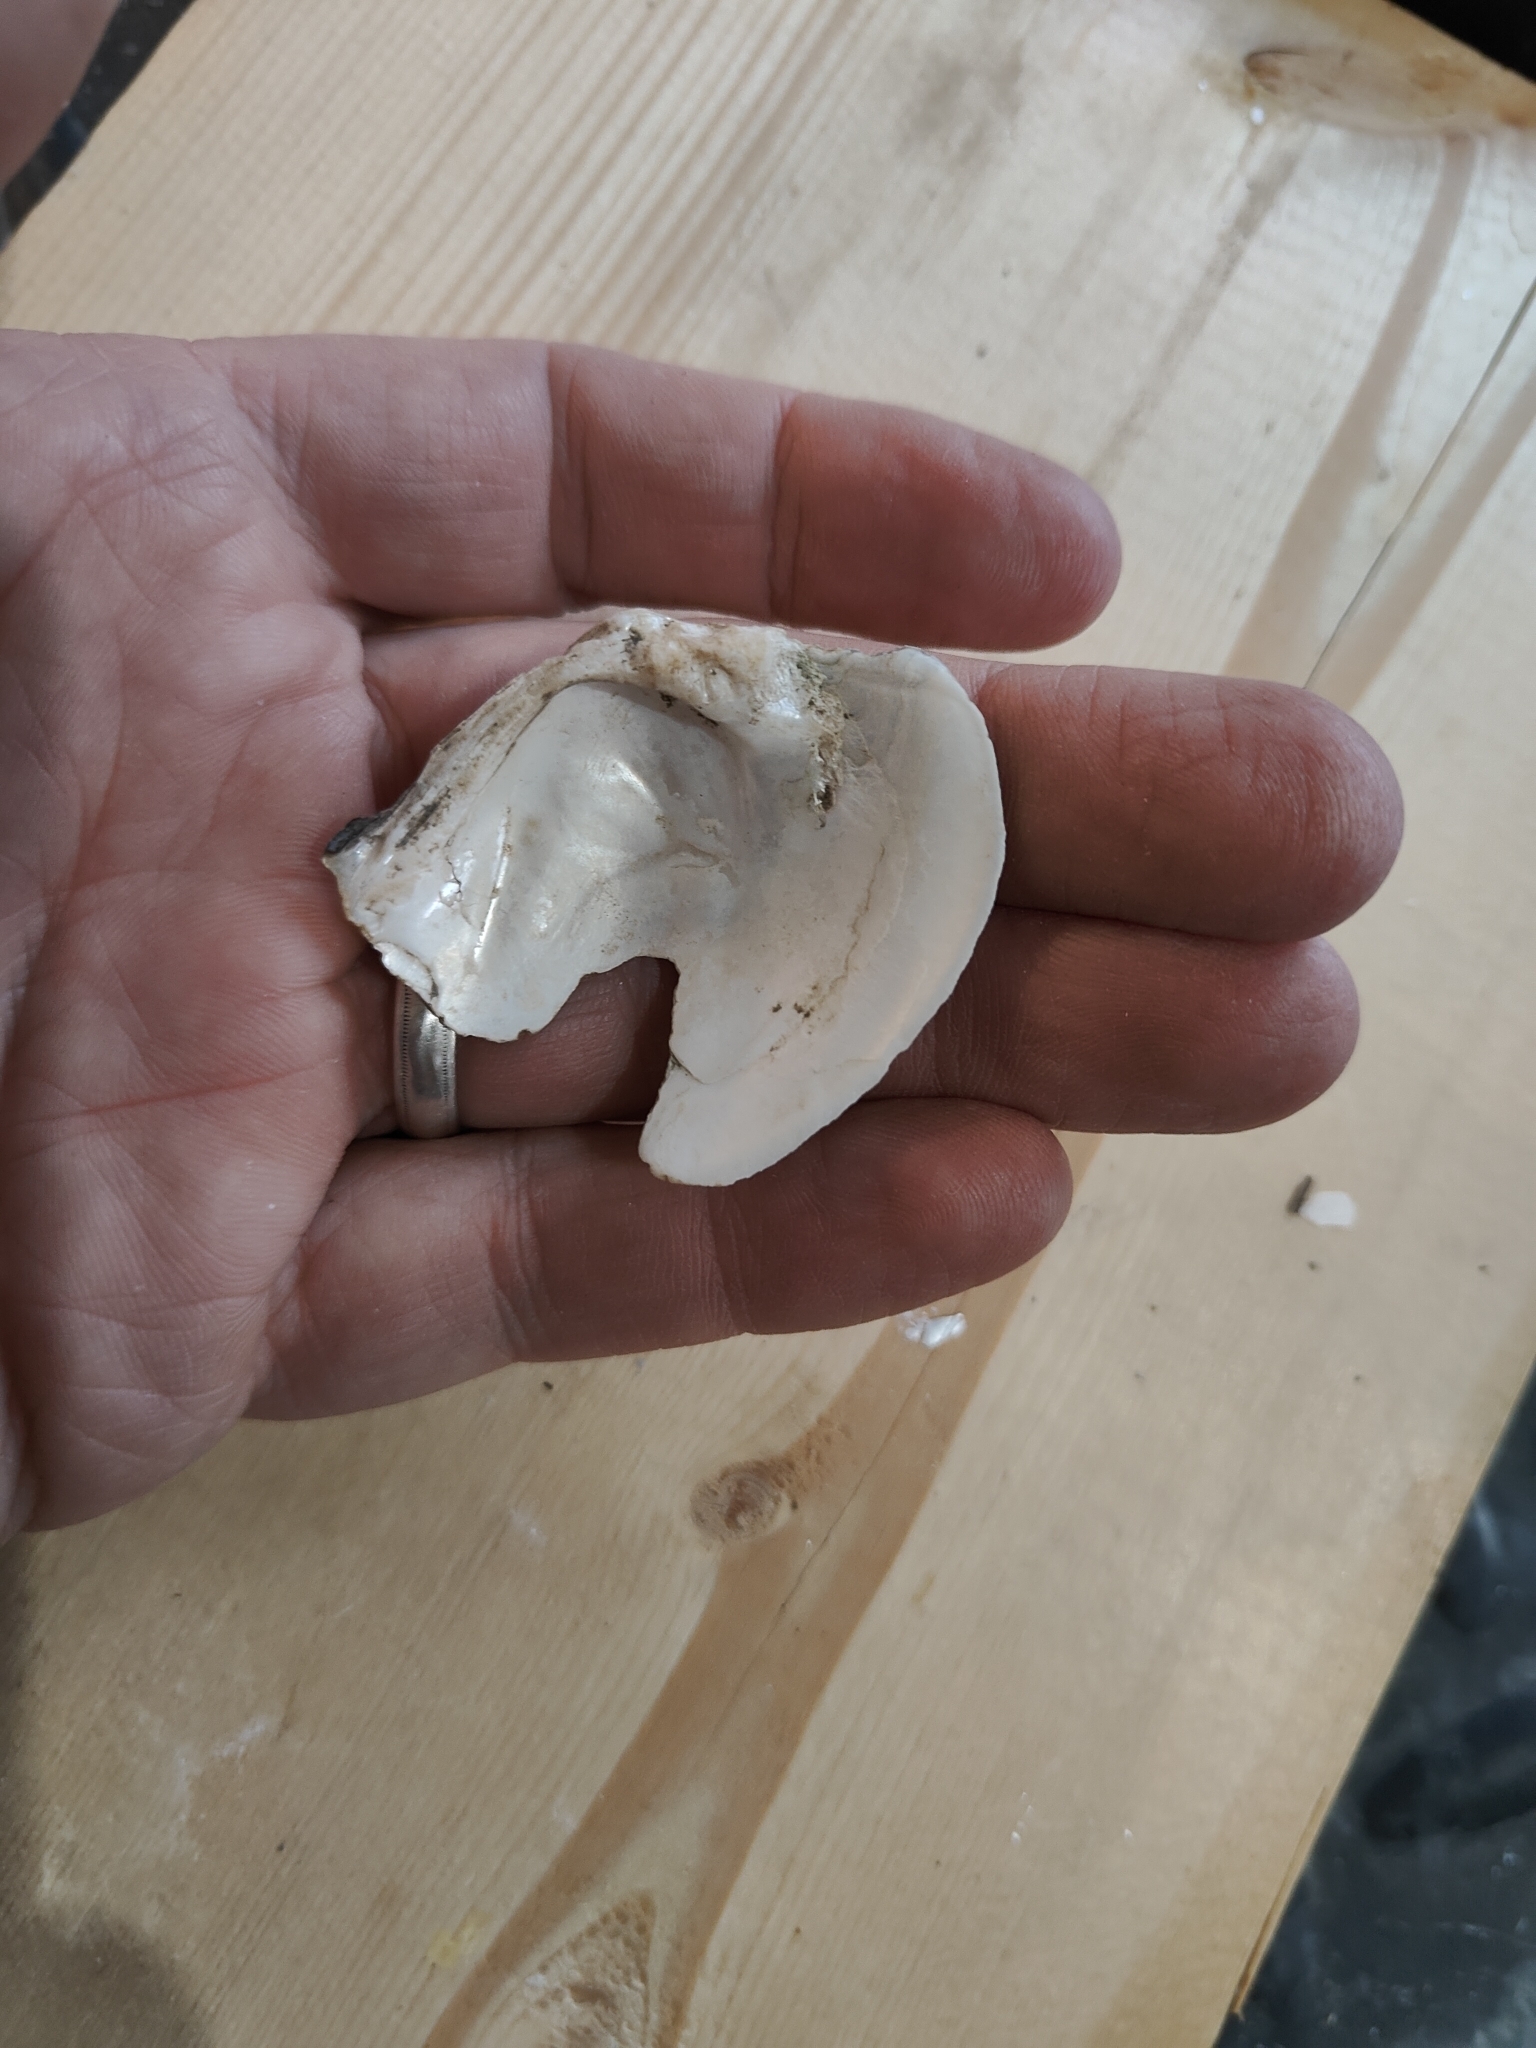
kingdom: Animalia
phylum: Mollusca
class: Bivalvia
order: Unionida
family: Unionidae
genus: Fusconaia
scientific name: Fusconaia flava
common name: Wabash pigtoe
